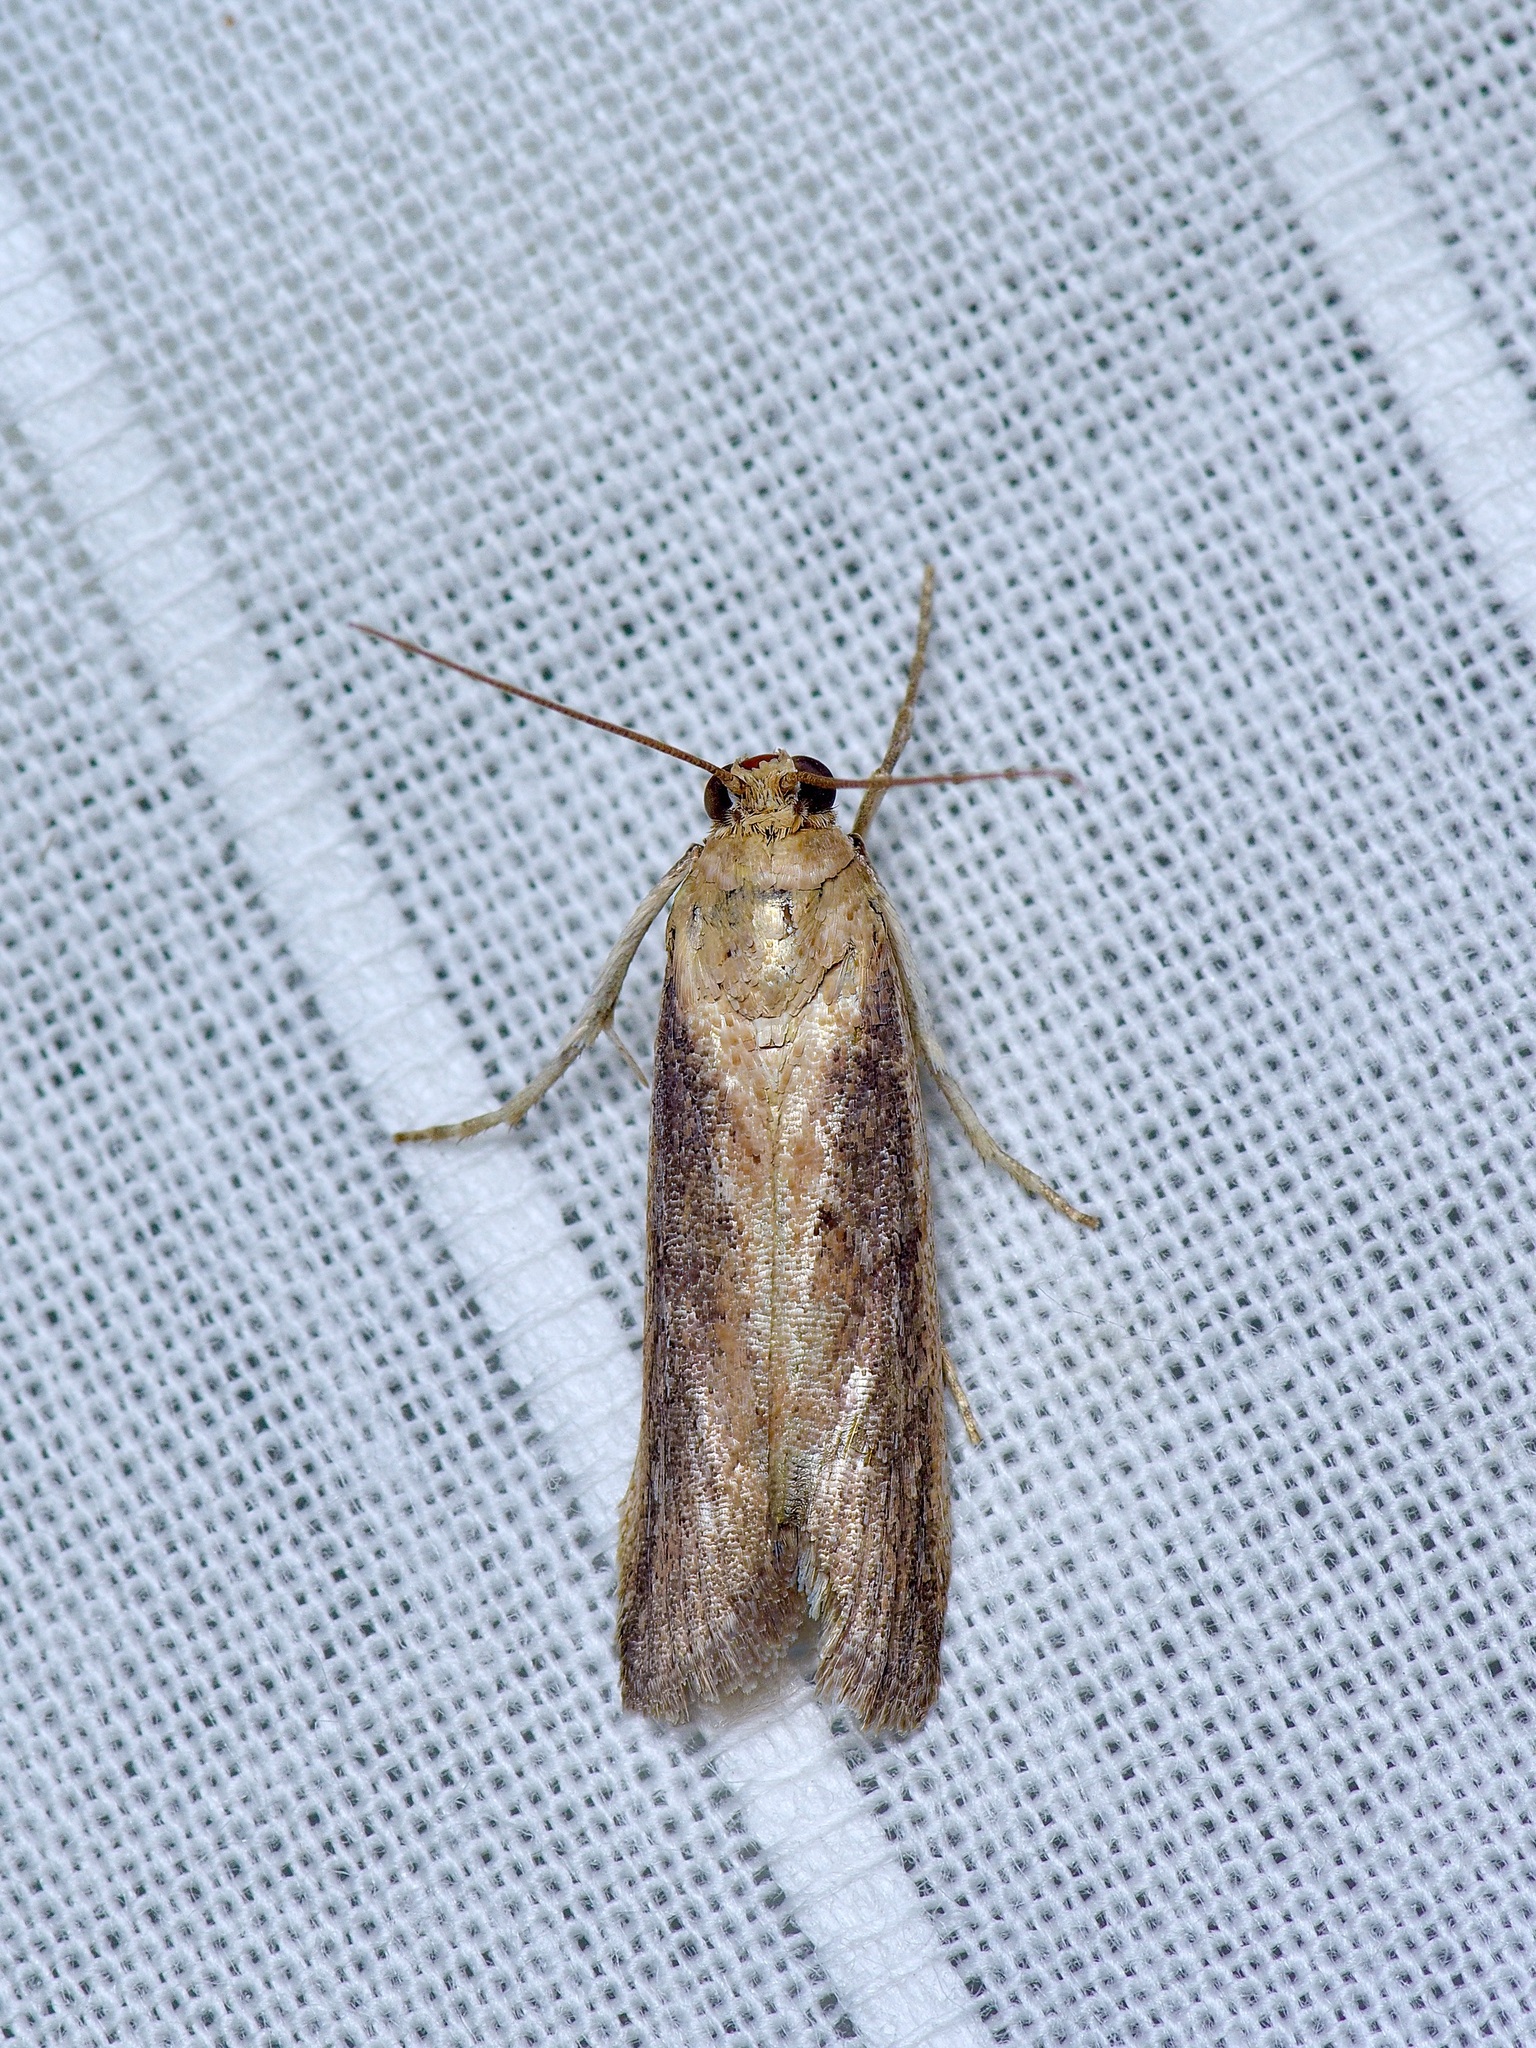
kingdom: Animalia
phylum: Arthropoda
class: Insecta
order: Lepidoptera
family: Pyralidae
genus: Stylopalpia
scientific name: Stylopalpia scobiella
